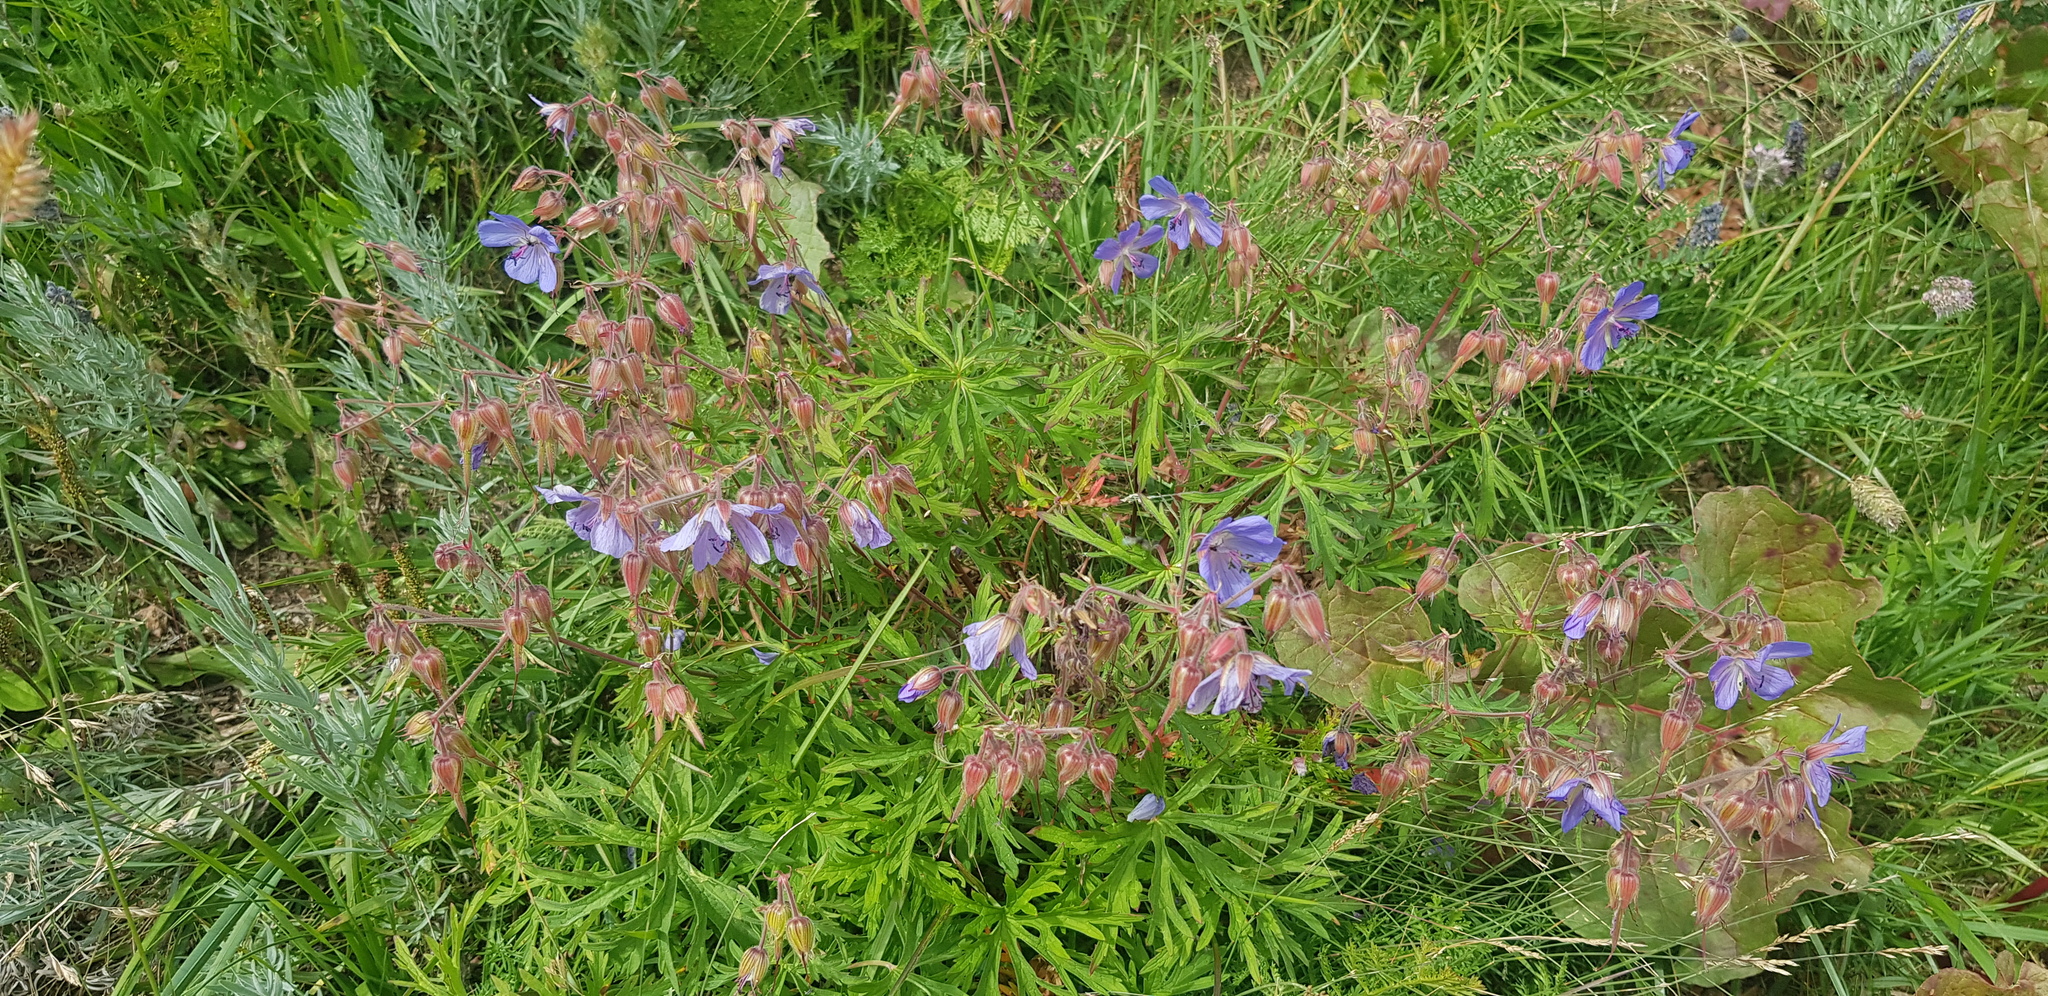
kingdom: Plantae
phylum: Tracheophyta
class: Magnoliopsida
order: Geraniales
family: Geraniaceae
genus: Geranium
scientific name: Geranium pratense
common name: Meadow crane's-bill
